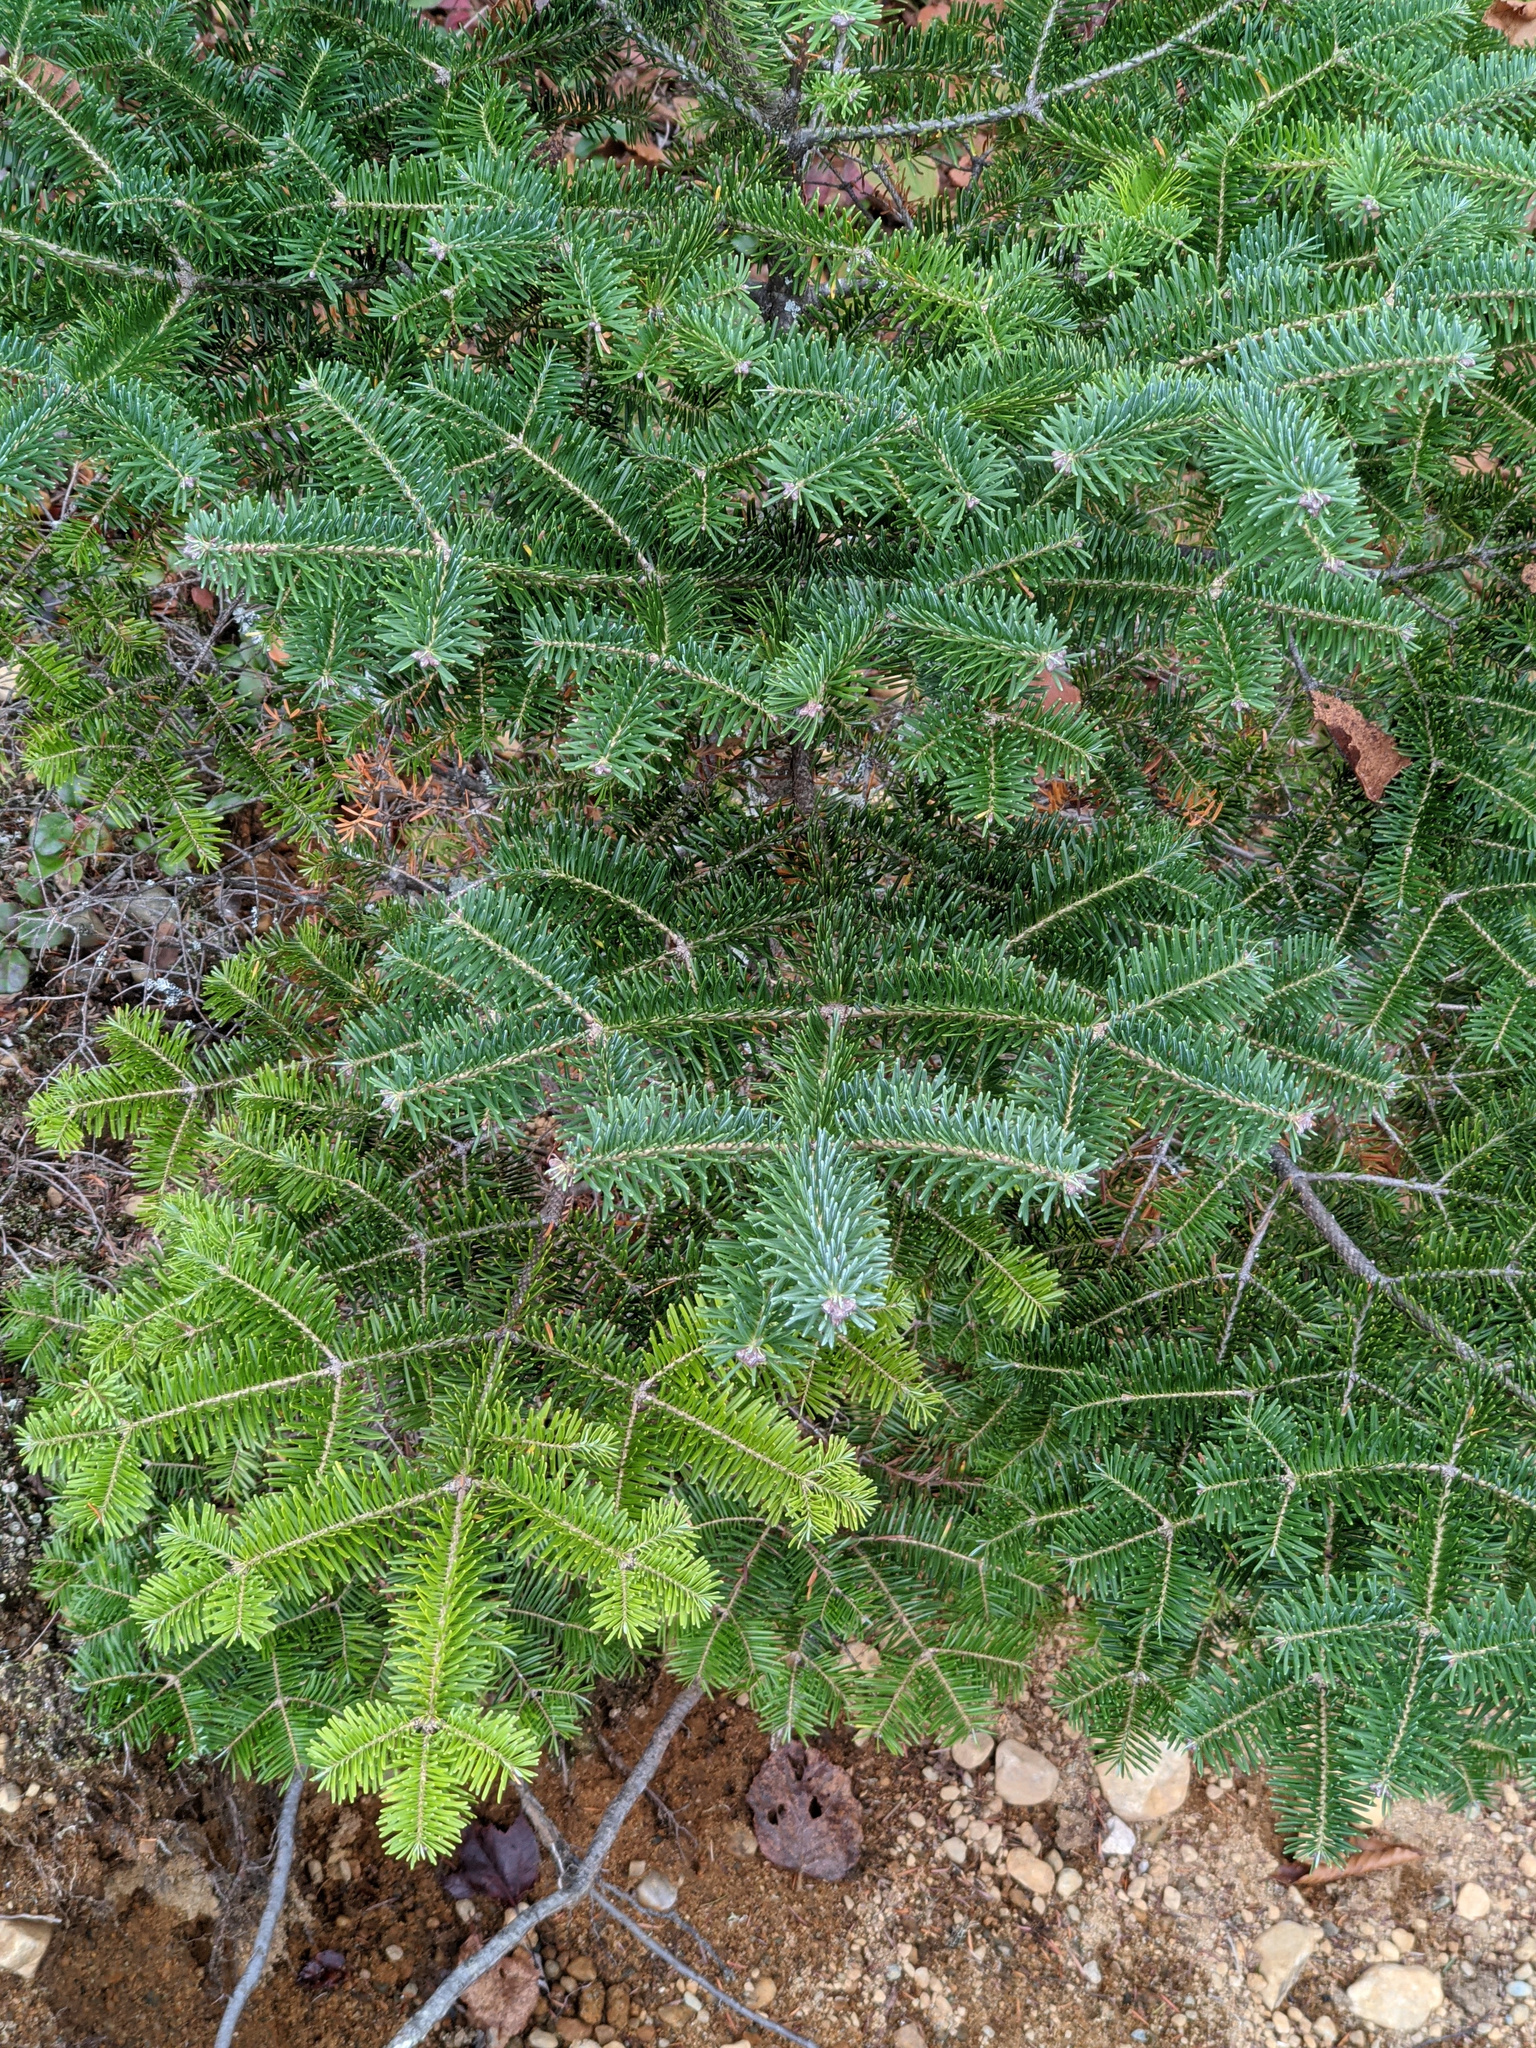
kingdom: Plantae
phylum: Tracheophyta
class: Pinopsida
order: Pinales
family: Pinaceae
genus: Abies
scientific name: Abies balsamea
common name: Balsam fir
